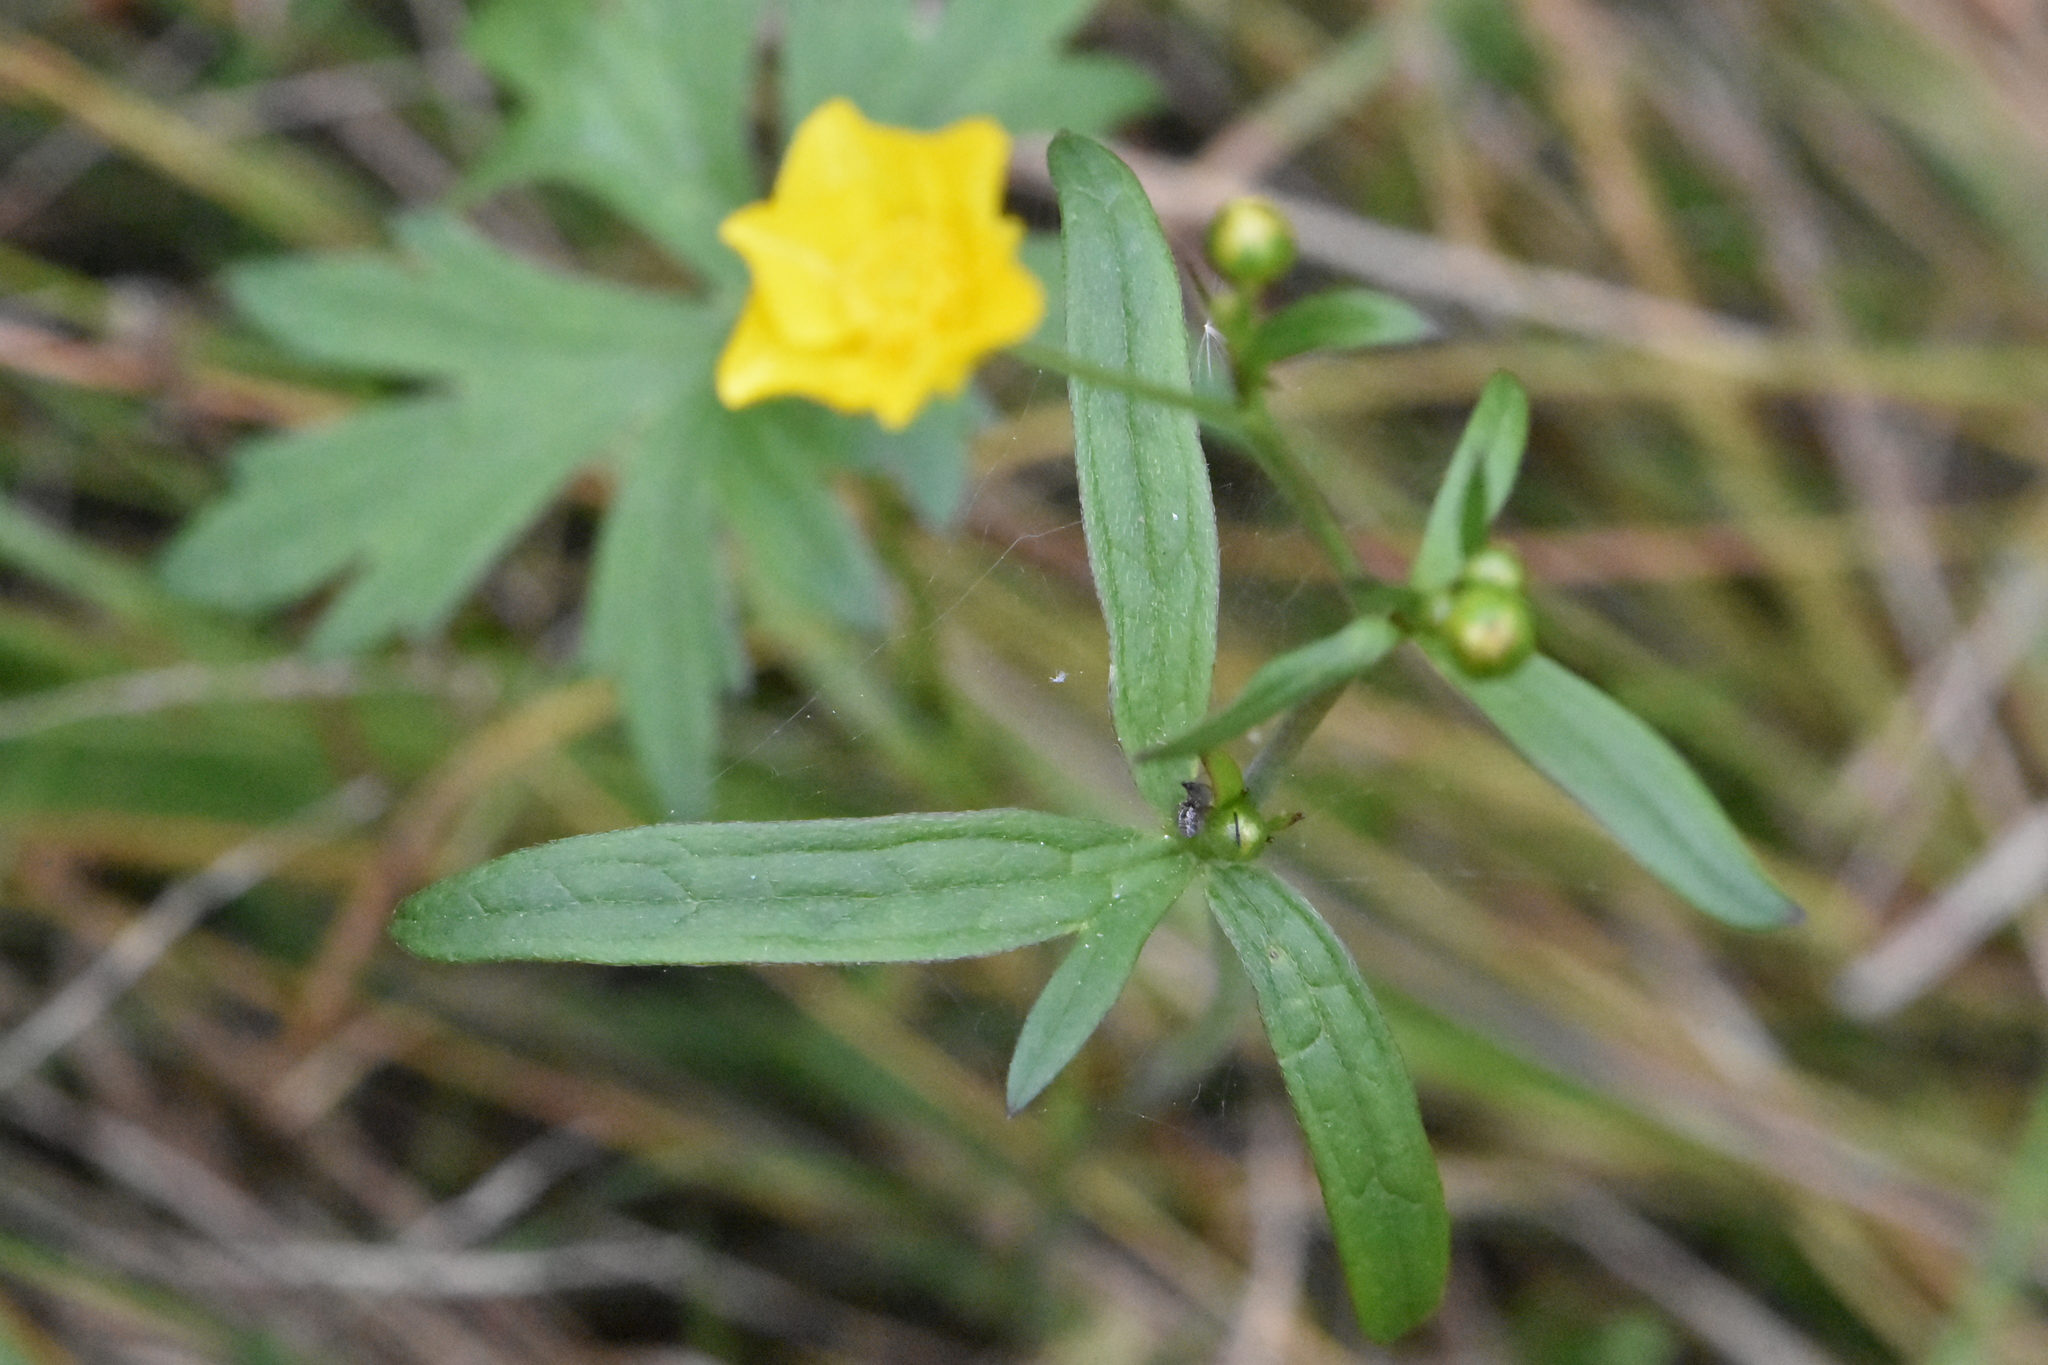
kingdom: Plantae
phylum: Tracheophyta
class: Magnoliopsida
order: Ranunculales
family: Ranunculaceae
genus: Ranunculus
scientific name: Ranunculus acris
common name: Meadow buttercup
